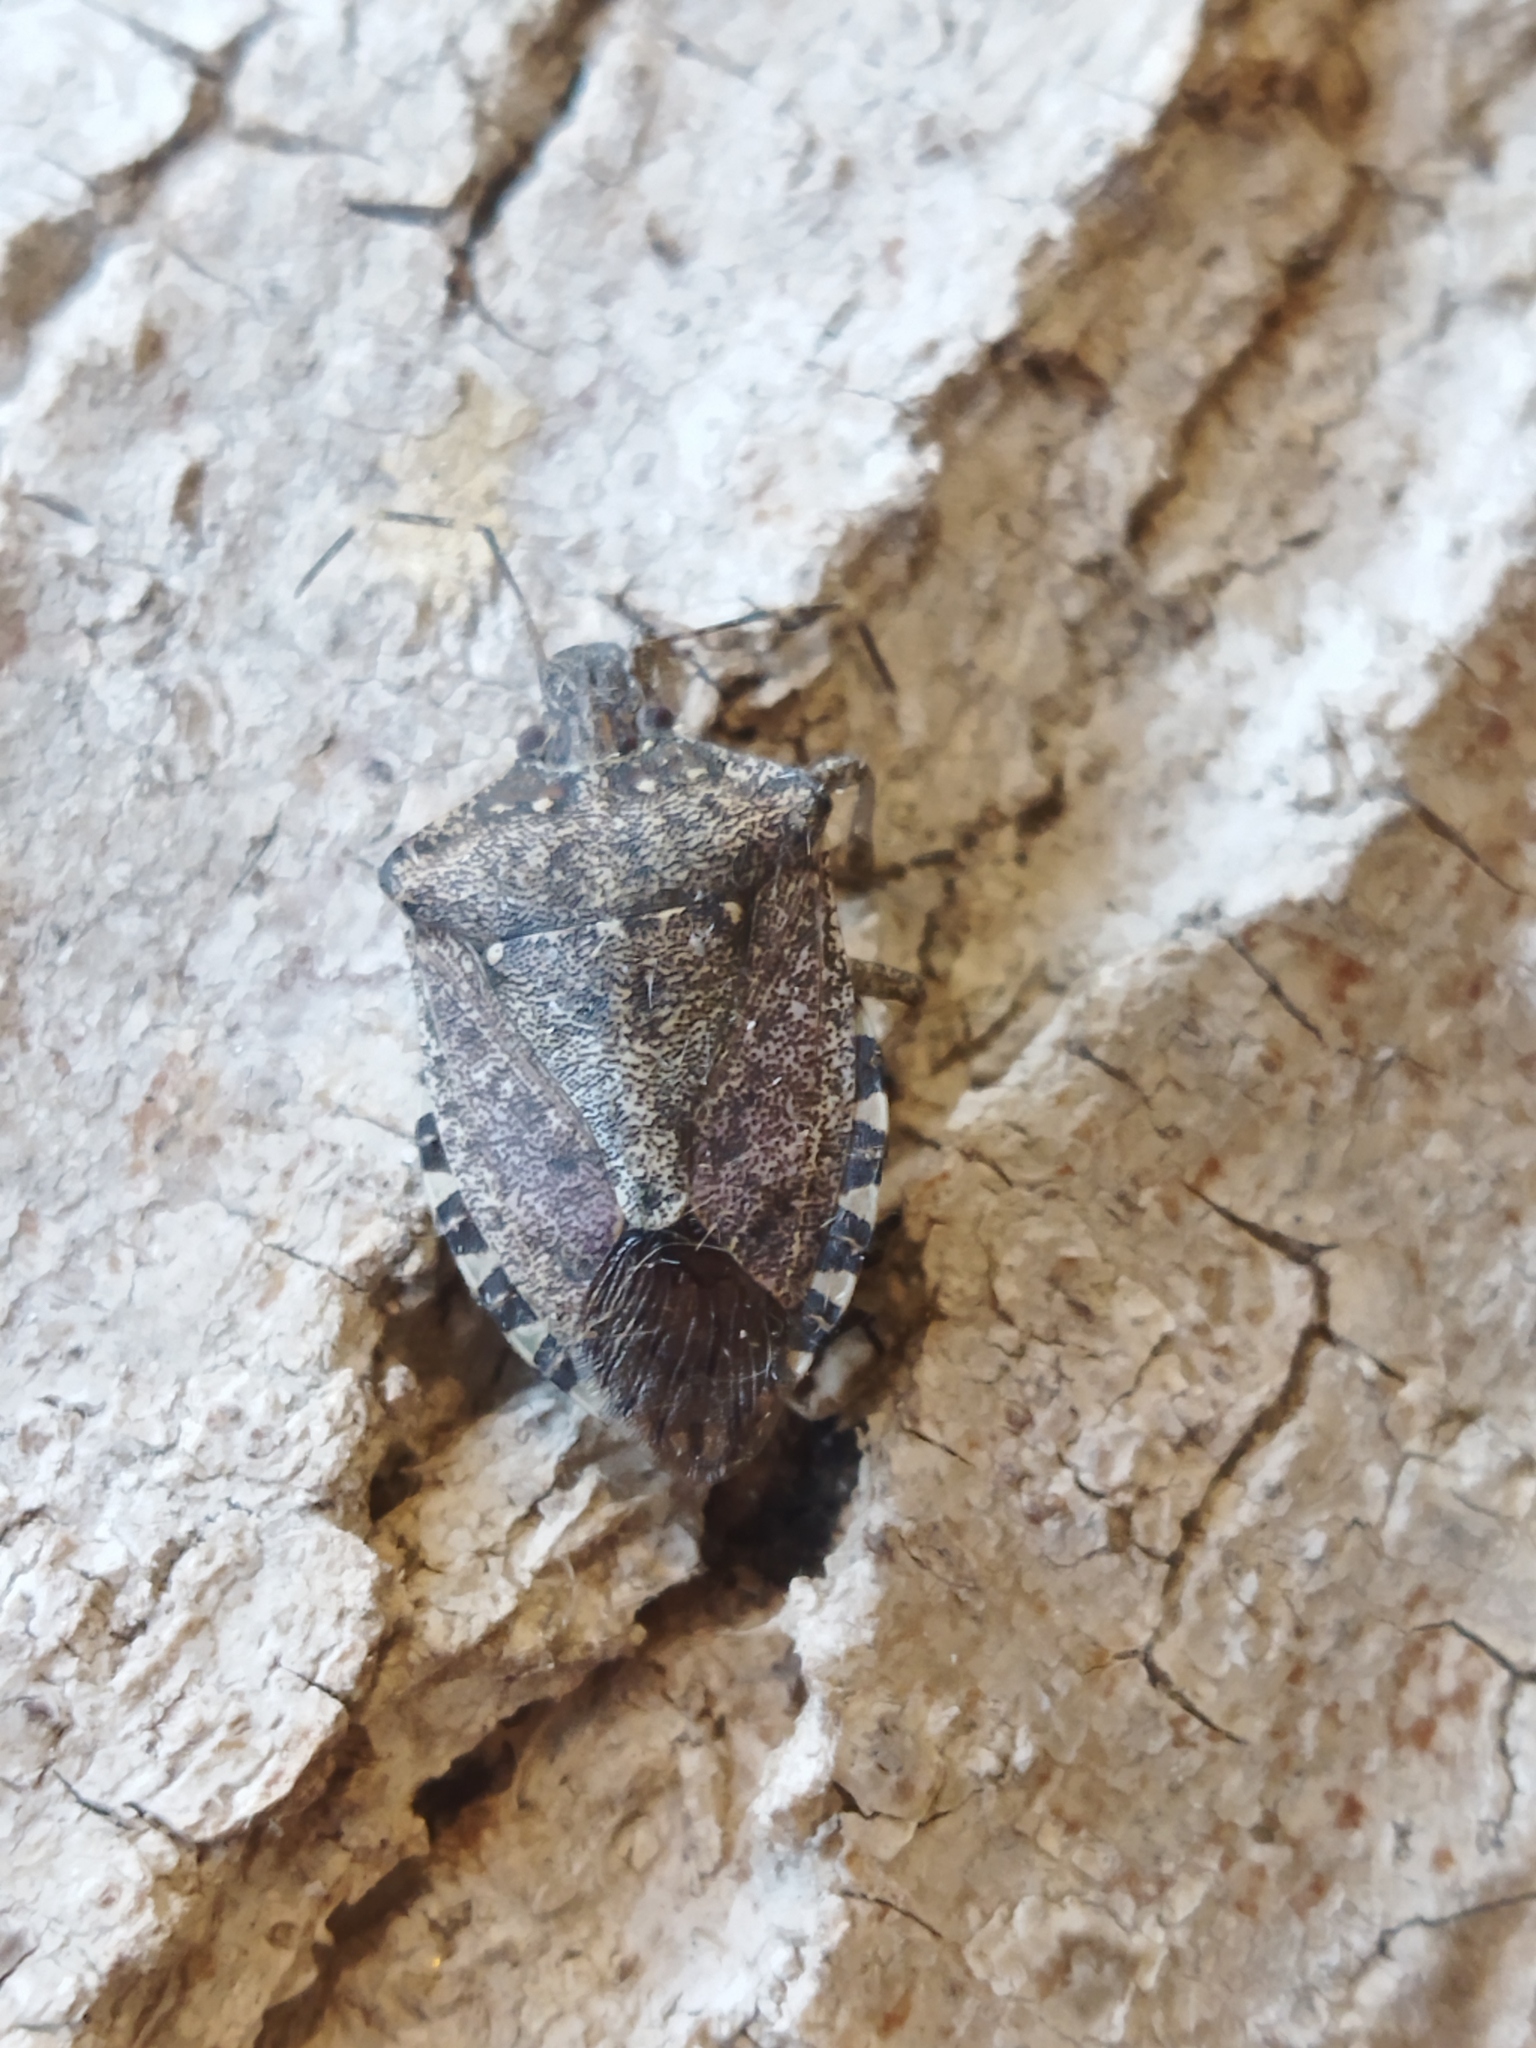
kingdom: Animalia
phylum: Arthropoda
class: Insecta
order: Hemiptera
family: Pentatomidae
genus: Halyomorpha
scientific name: Halyomorpha halys
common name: Brown marmorated stink bug
